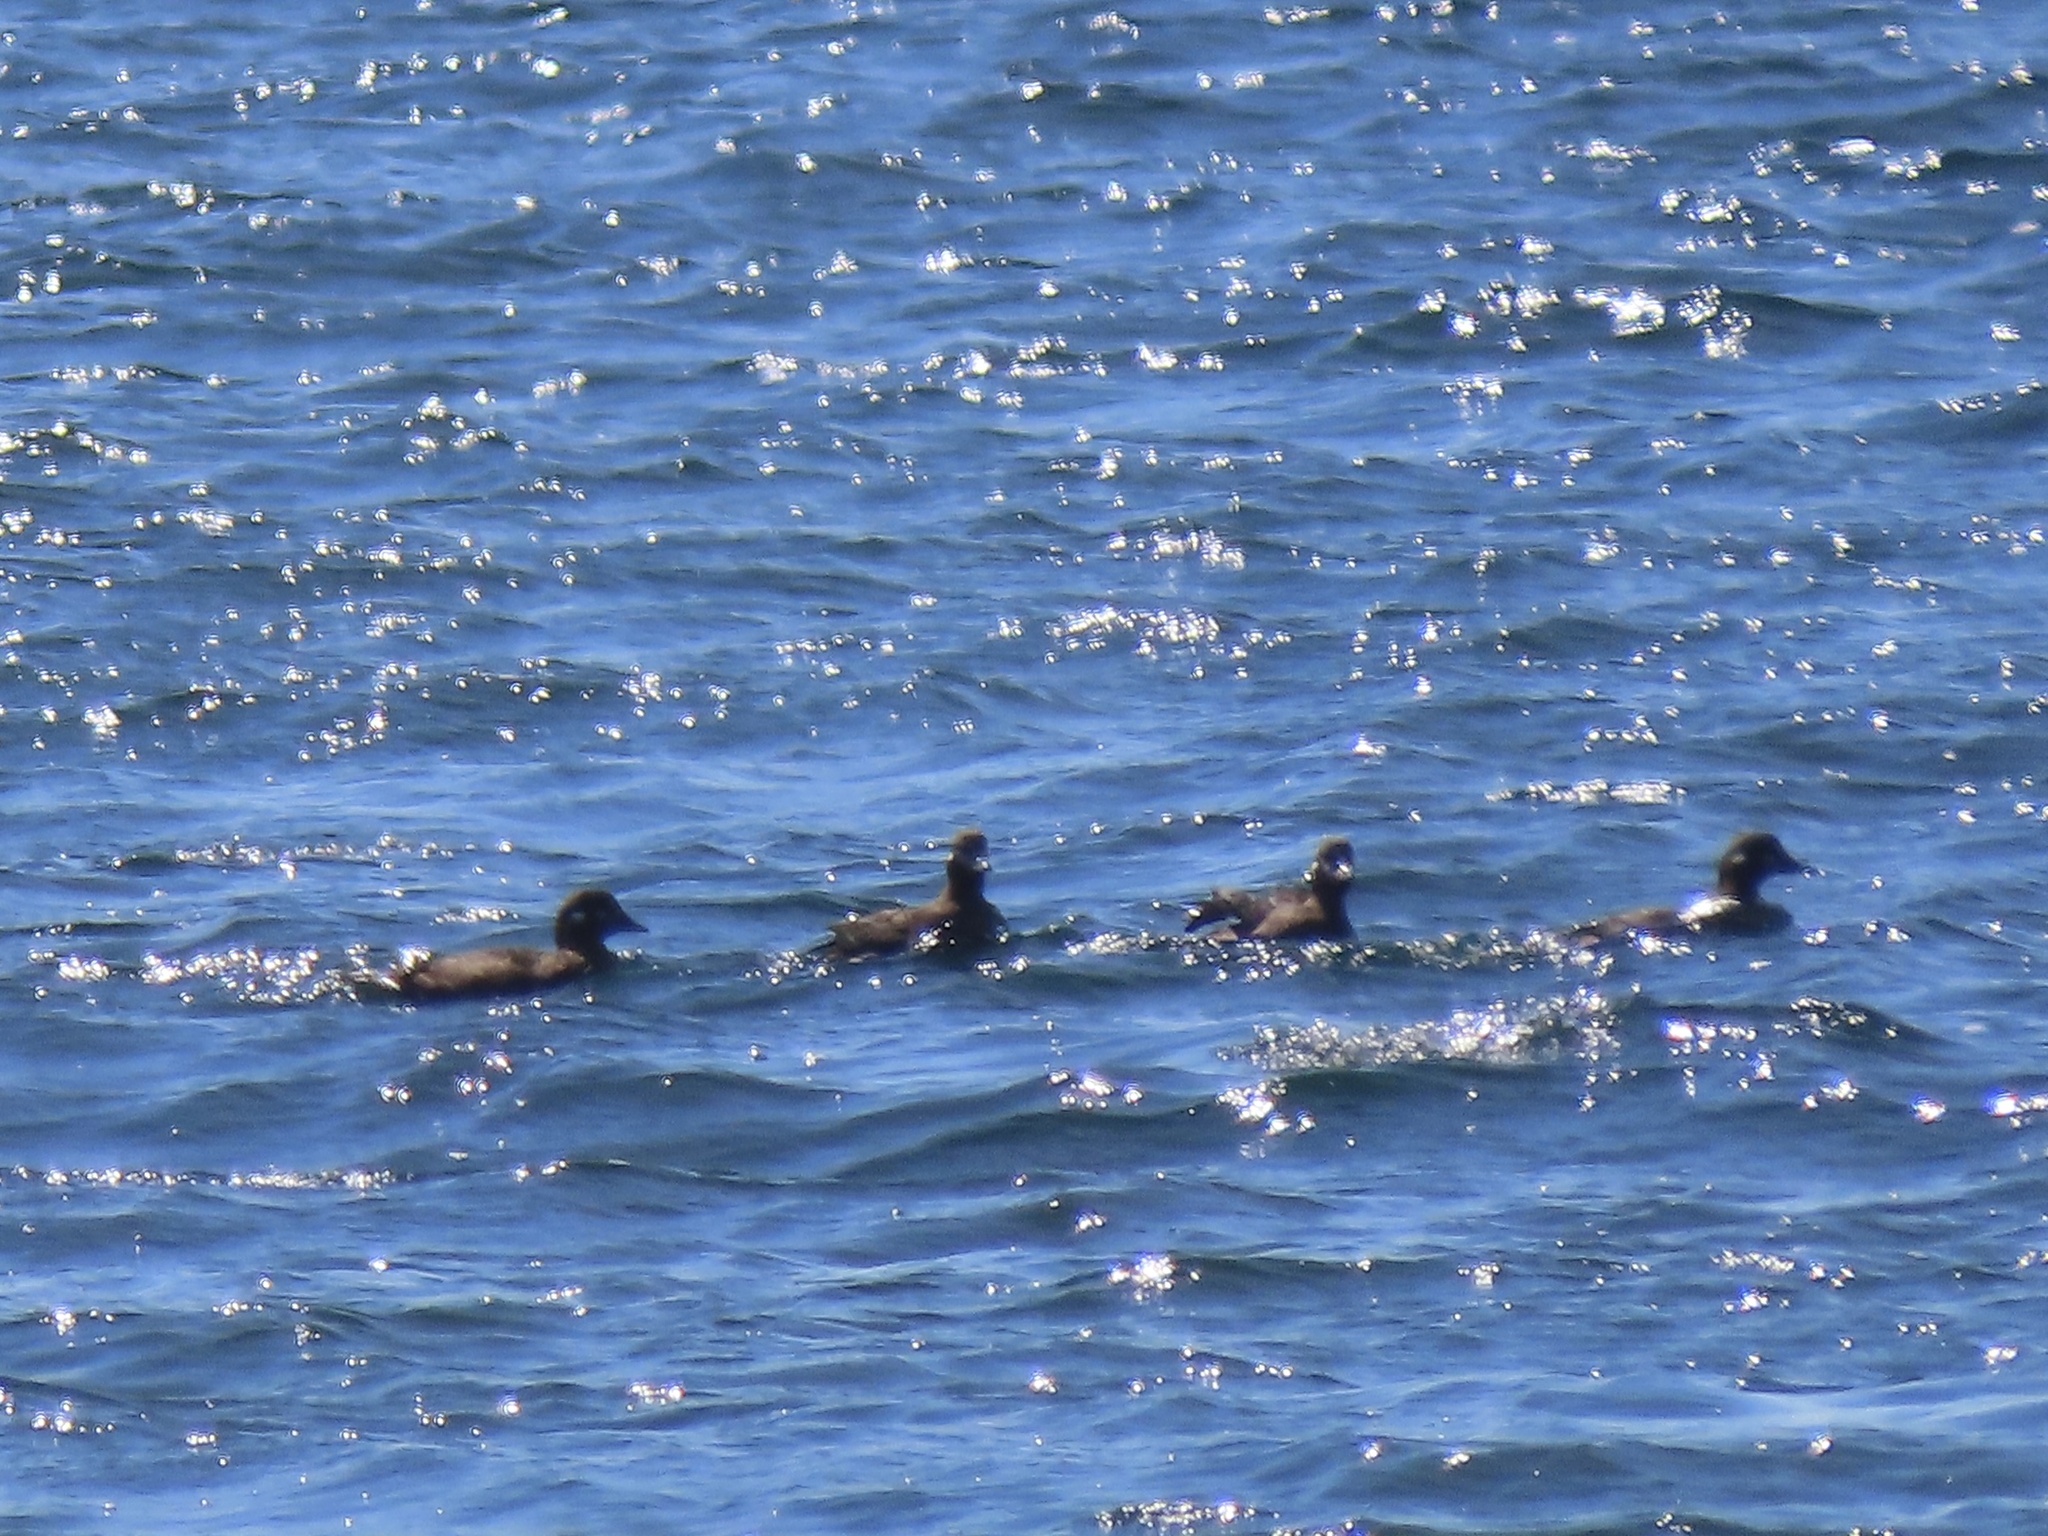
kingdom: Animalia
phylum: Chordata
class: Aves
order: Anseriformes
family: Anatidae
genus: Histrionicus
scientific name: Histrionicus histrionicus
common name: Harlequin duck
